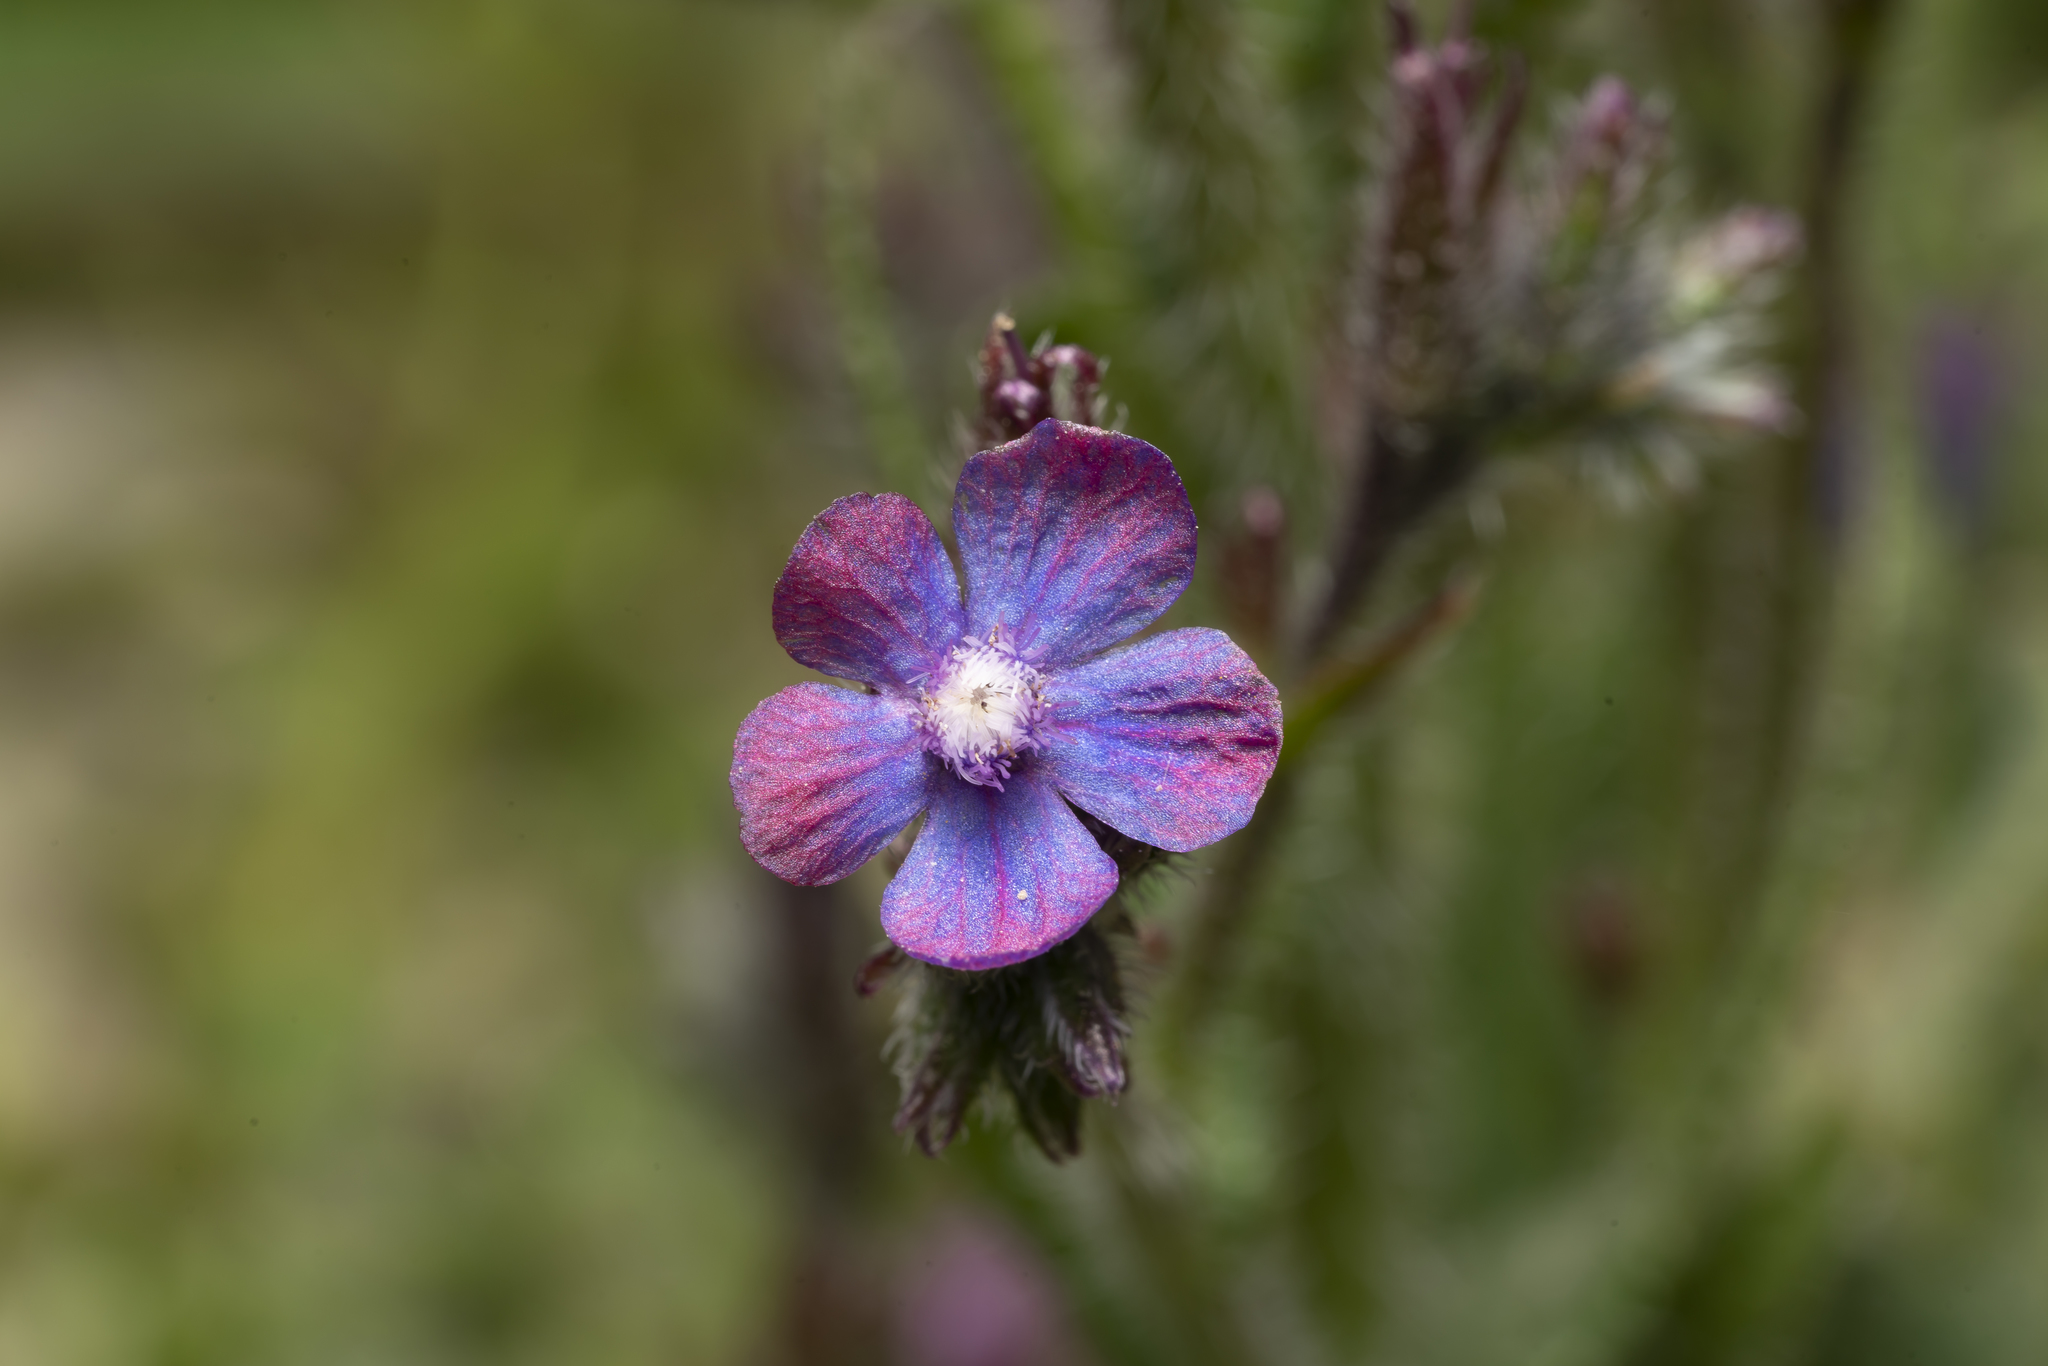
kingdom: Plantae
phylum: Tracheophyta
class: Magnoliopsida
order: Boraginales
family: Boraginaceae
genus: Anchusa
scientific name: Anchusa azurea
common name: Garden anchusa
